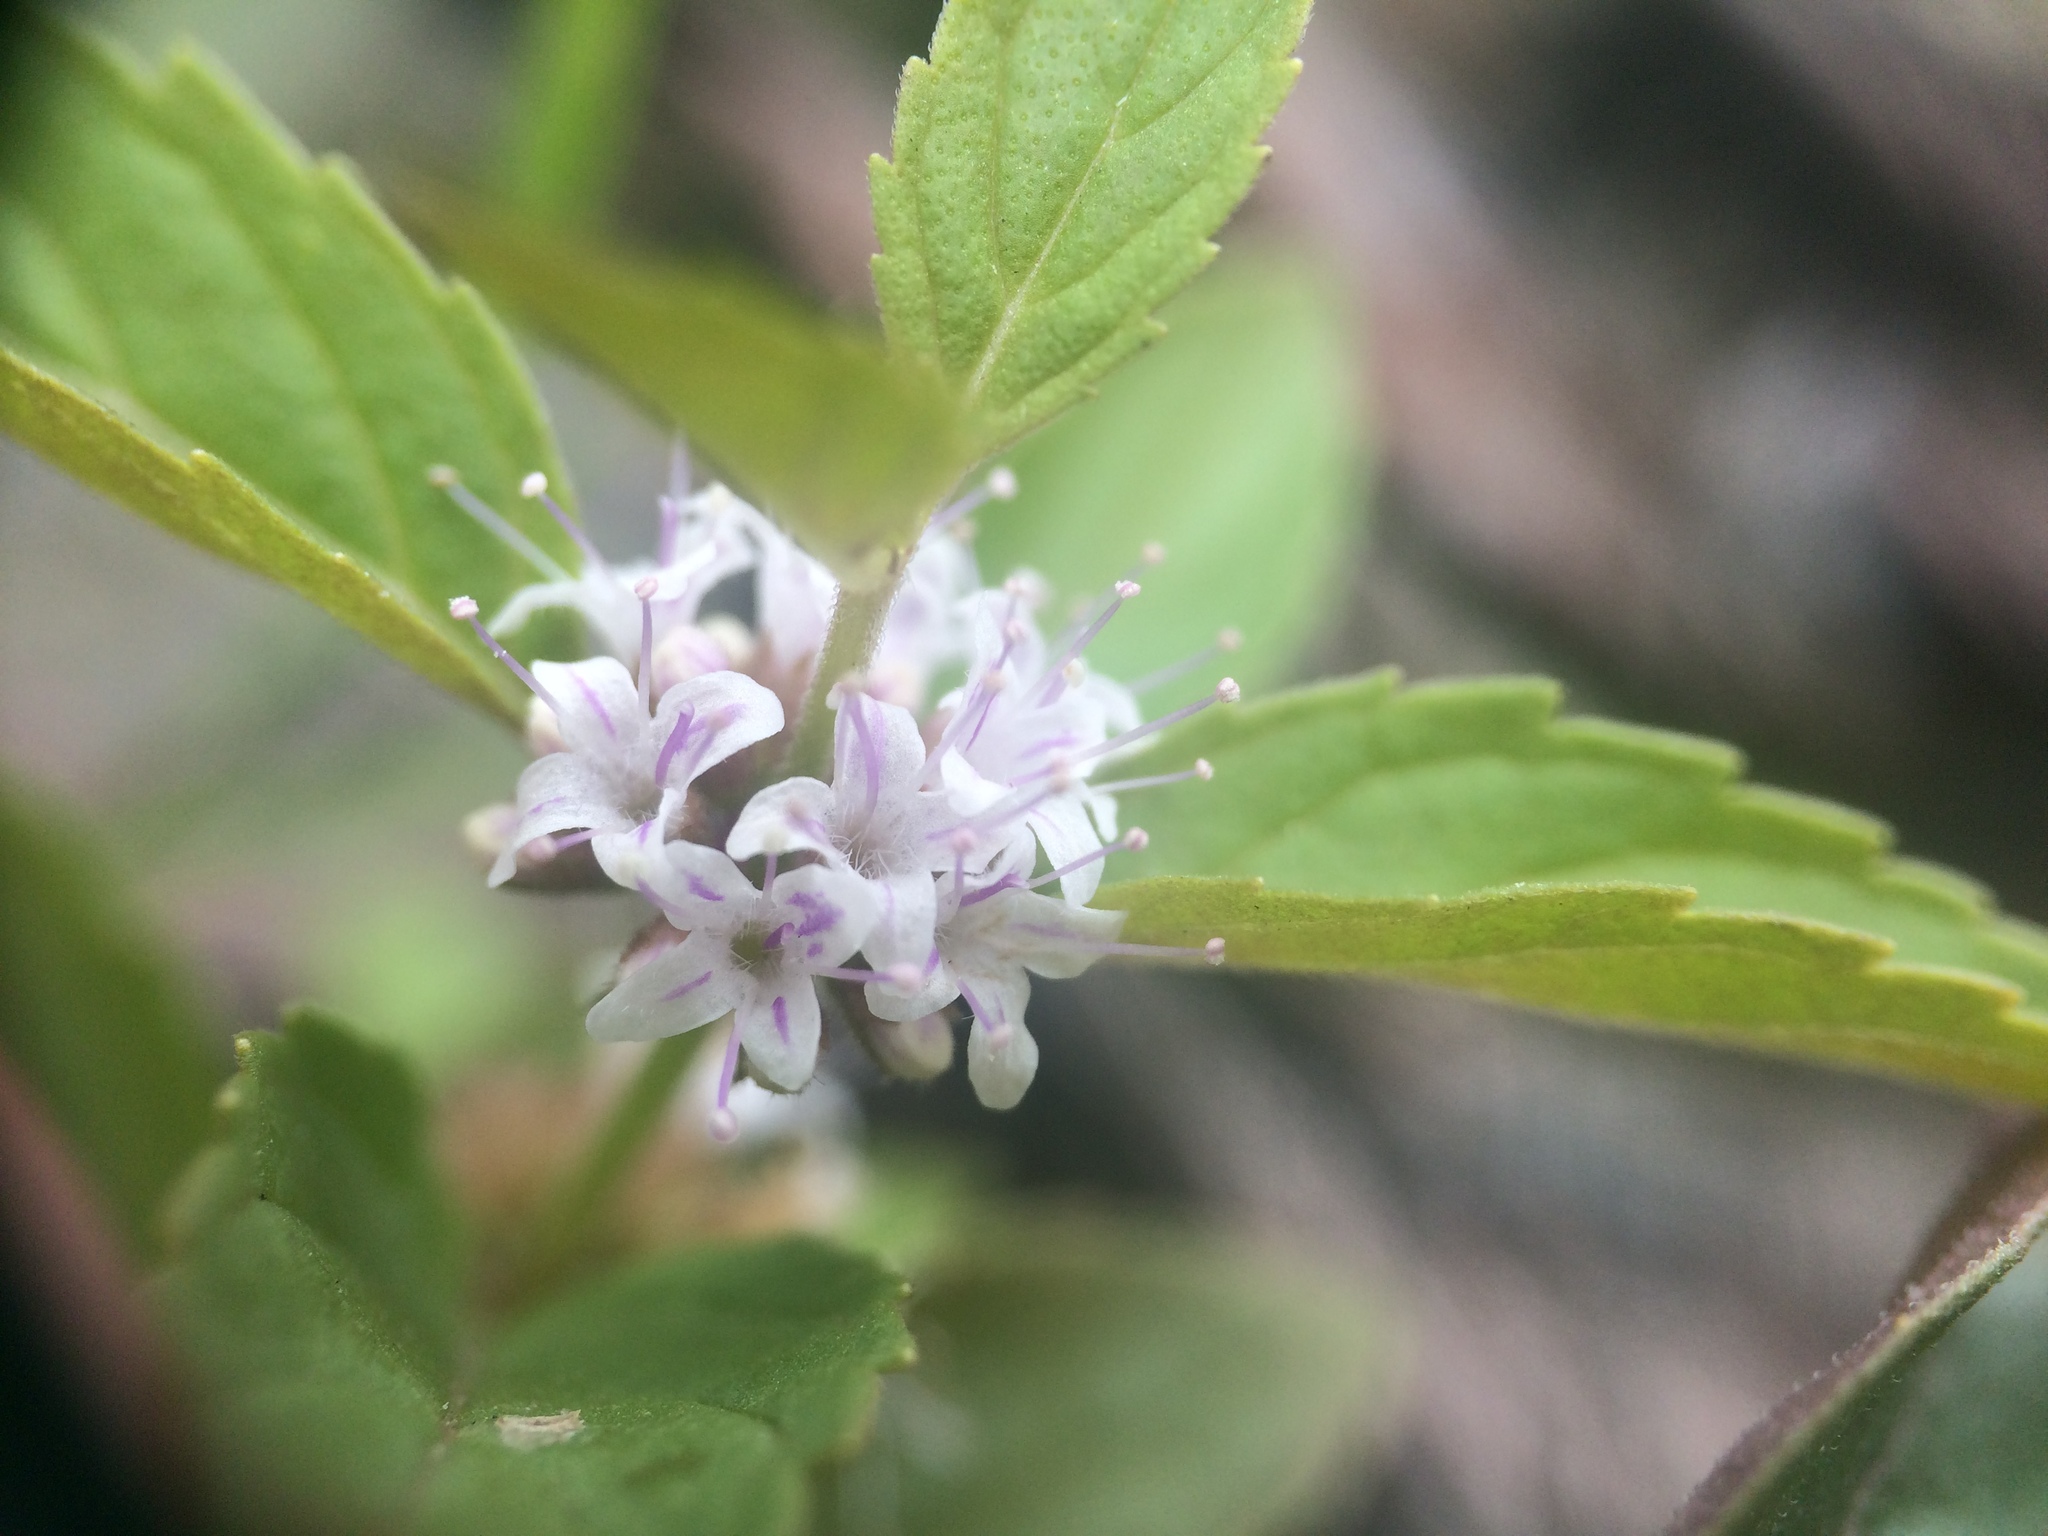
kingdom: Plantae
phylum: Tracheophyta
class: Magnoliopsida
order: Lamiales
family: Lamiaceae
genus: Mentha
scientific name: Mentha canadensis
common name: American corn mint
